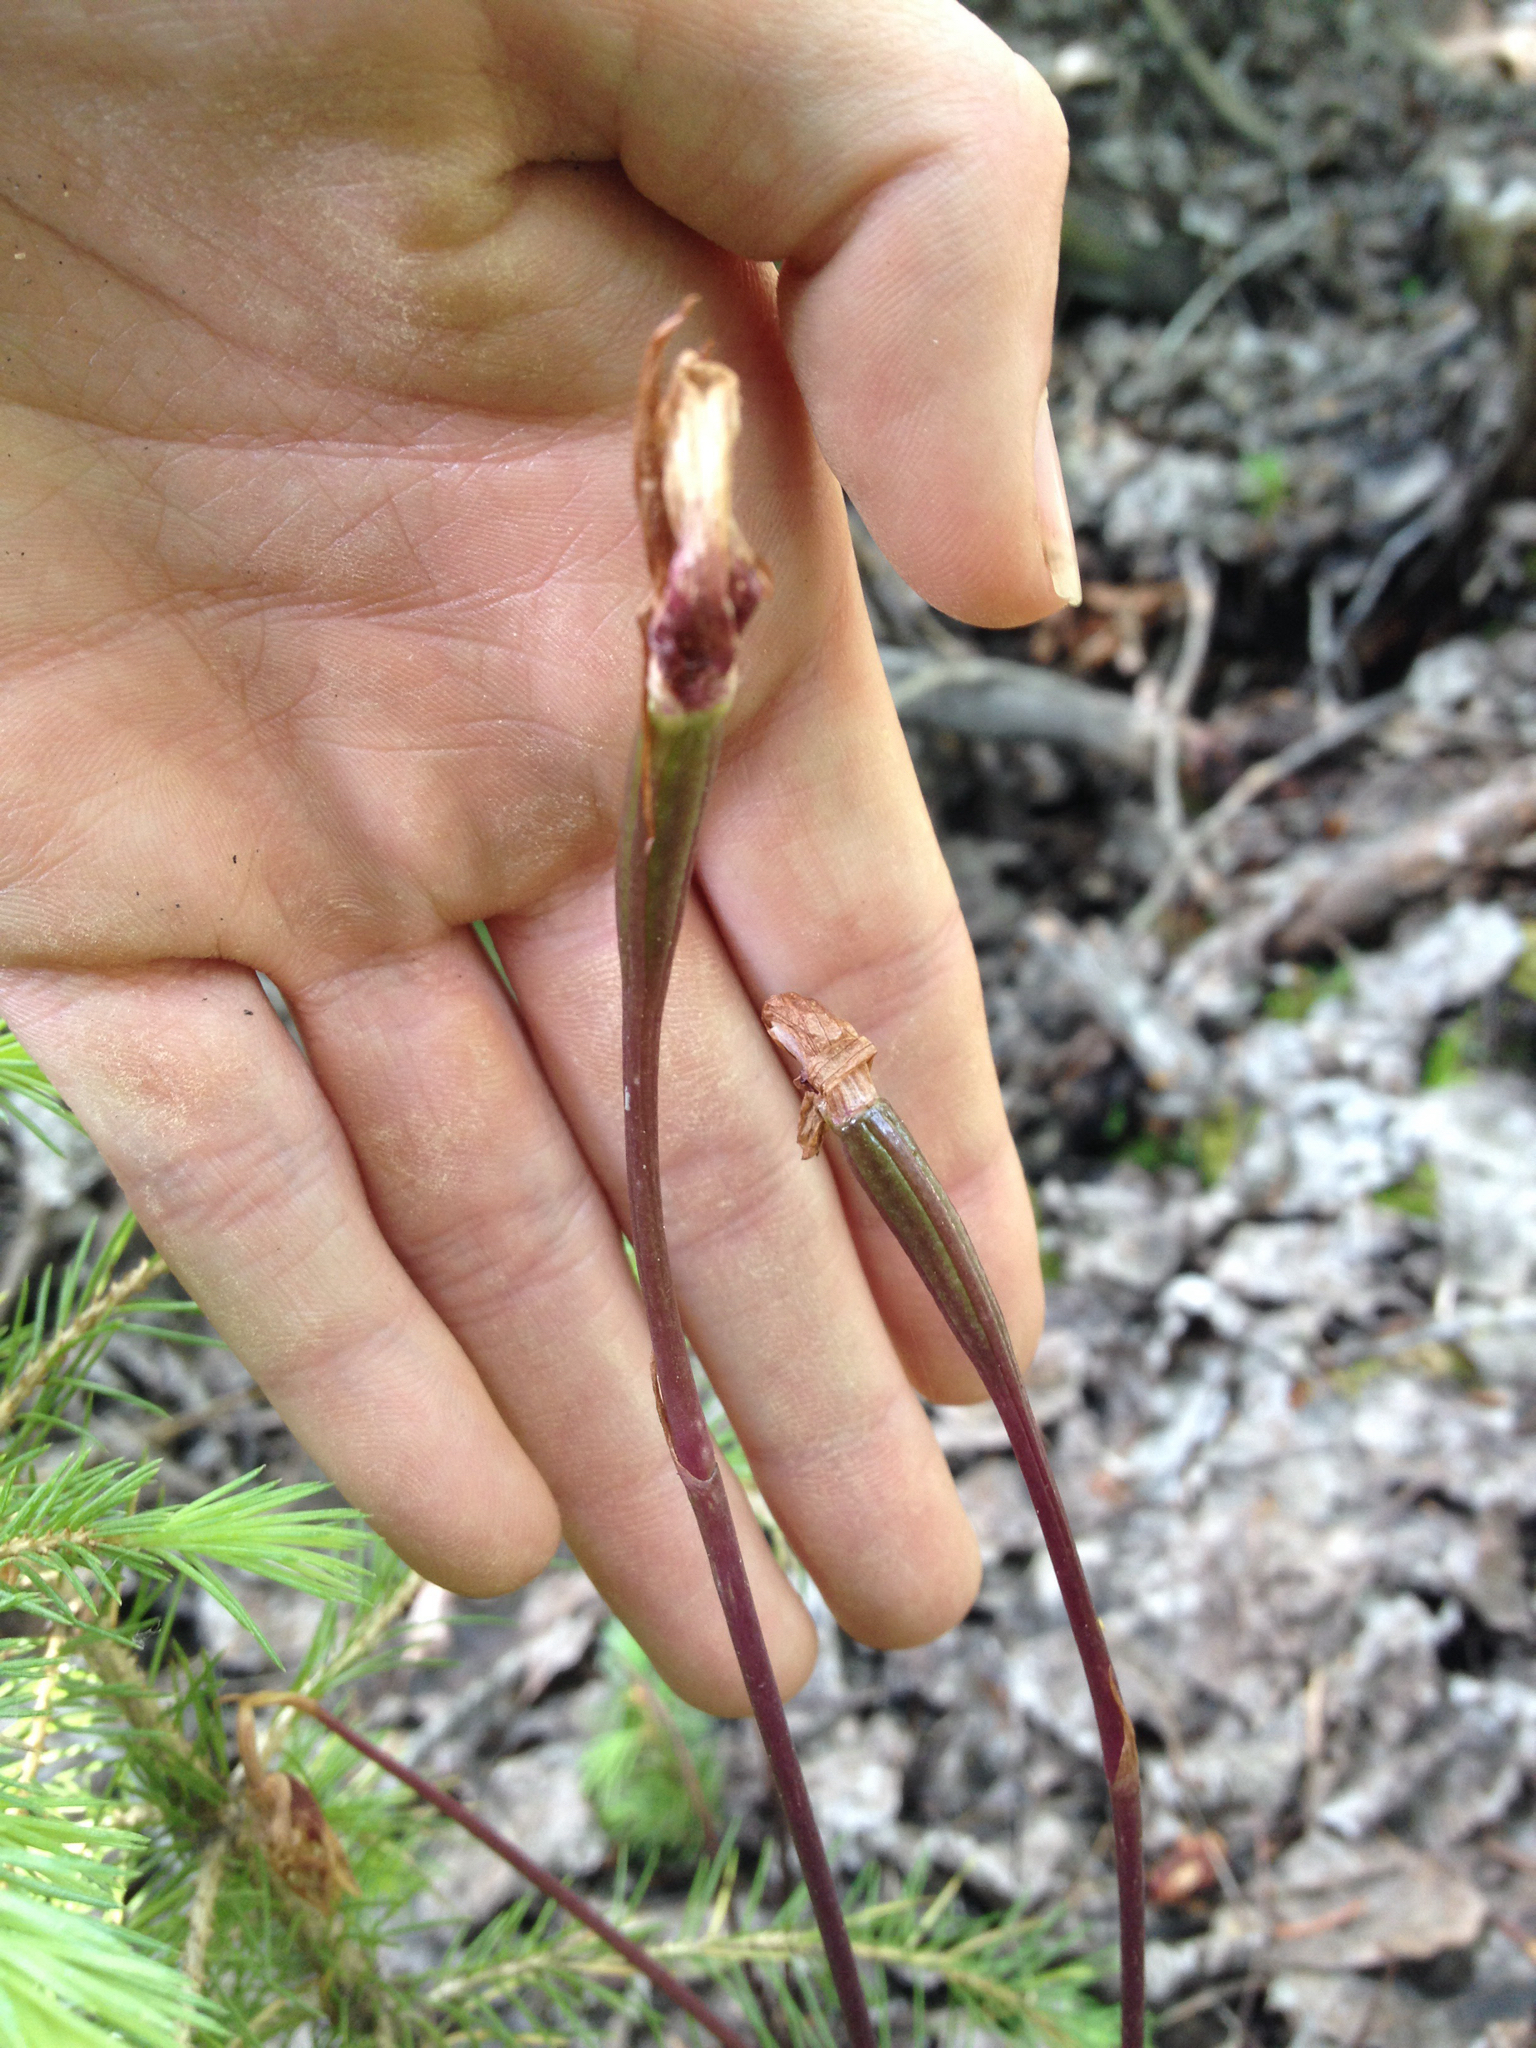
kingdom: Plantae
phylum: Tracheophyta
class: Liliopsida
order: Asparagales
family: Orchidaceae
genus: Calypso
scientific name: Calypso bulbosa
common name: Calypso
